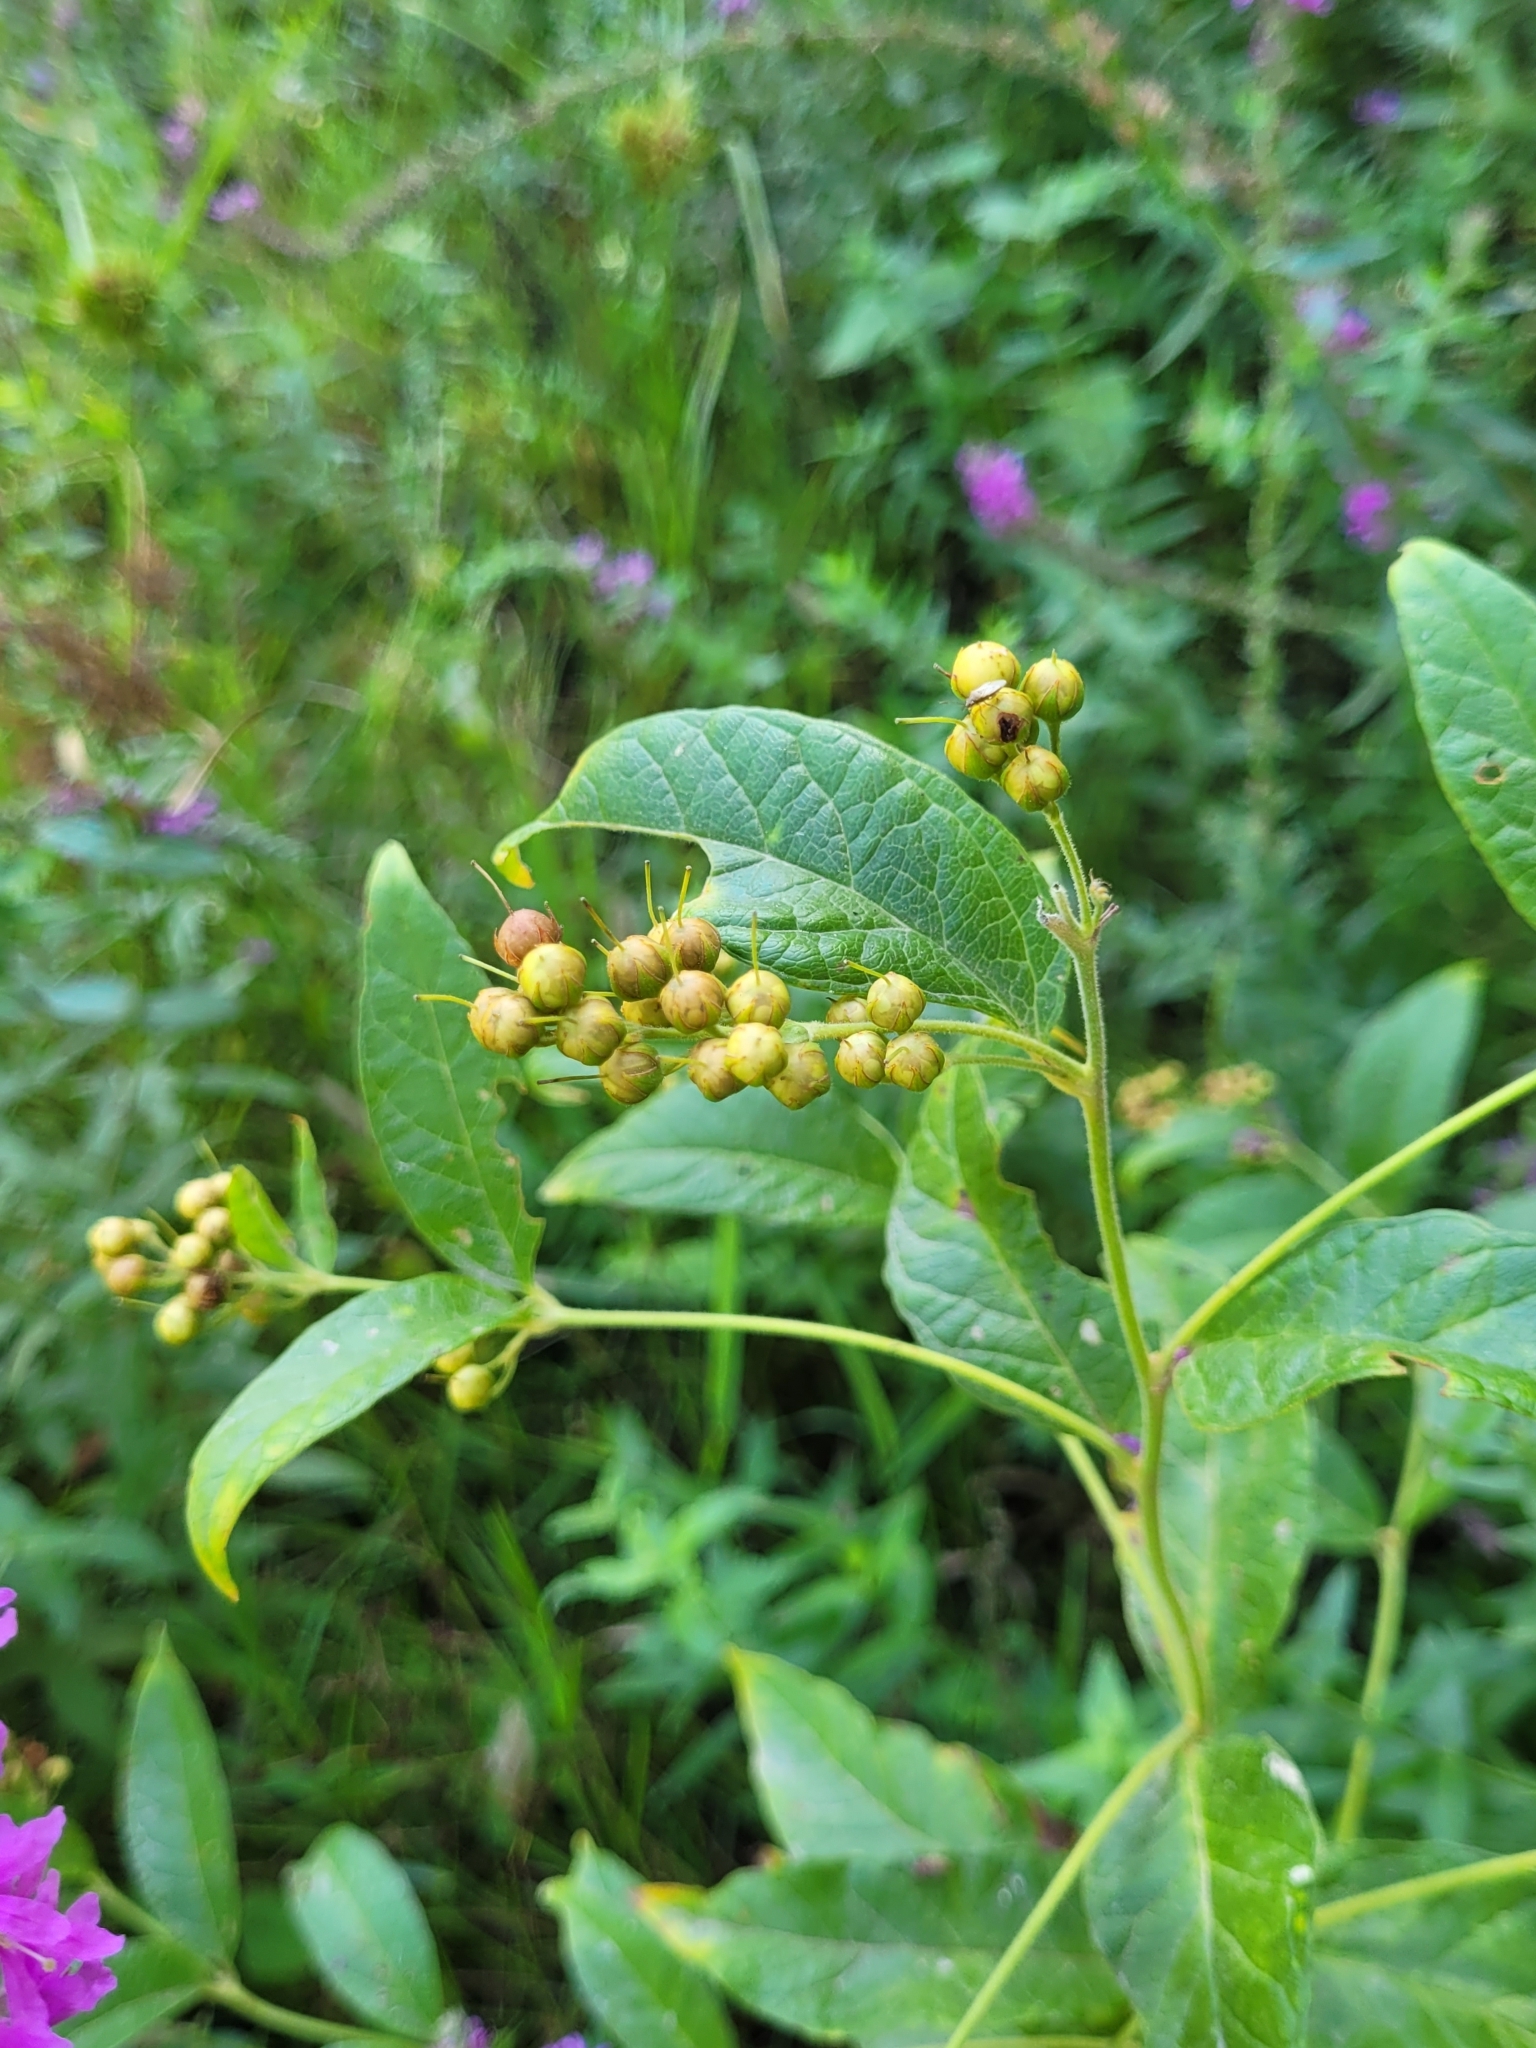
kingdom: Plantae
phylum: Tracheophyta
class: Magnoliopsida
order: Ericales
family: Primulaceae
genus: Lysimachia
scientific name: Lysimachia vulgaris
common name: Yellow loosestrife
